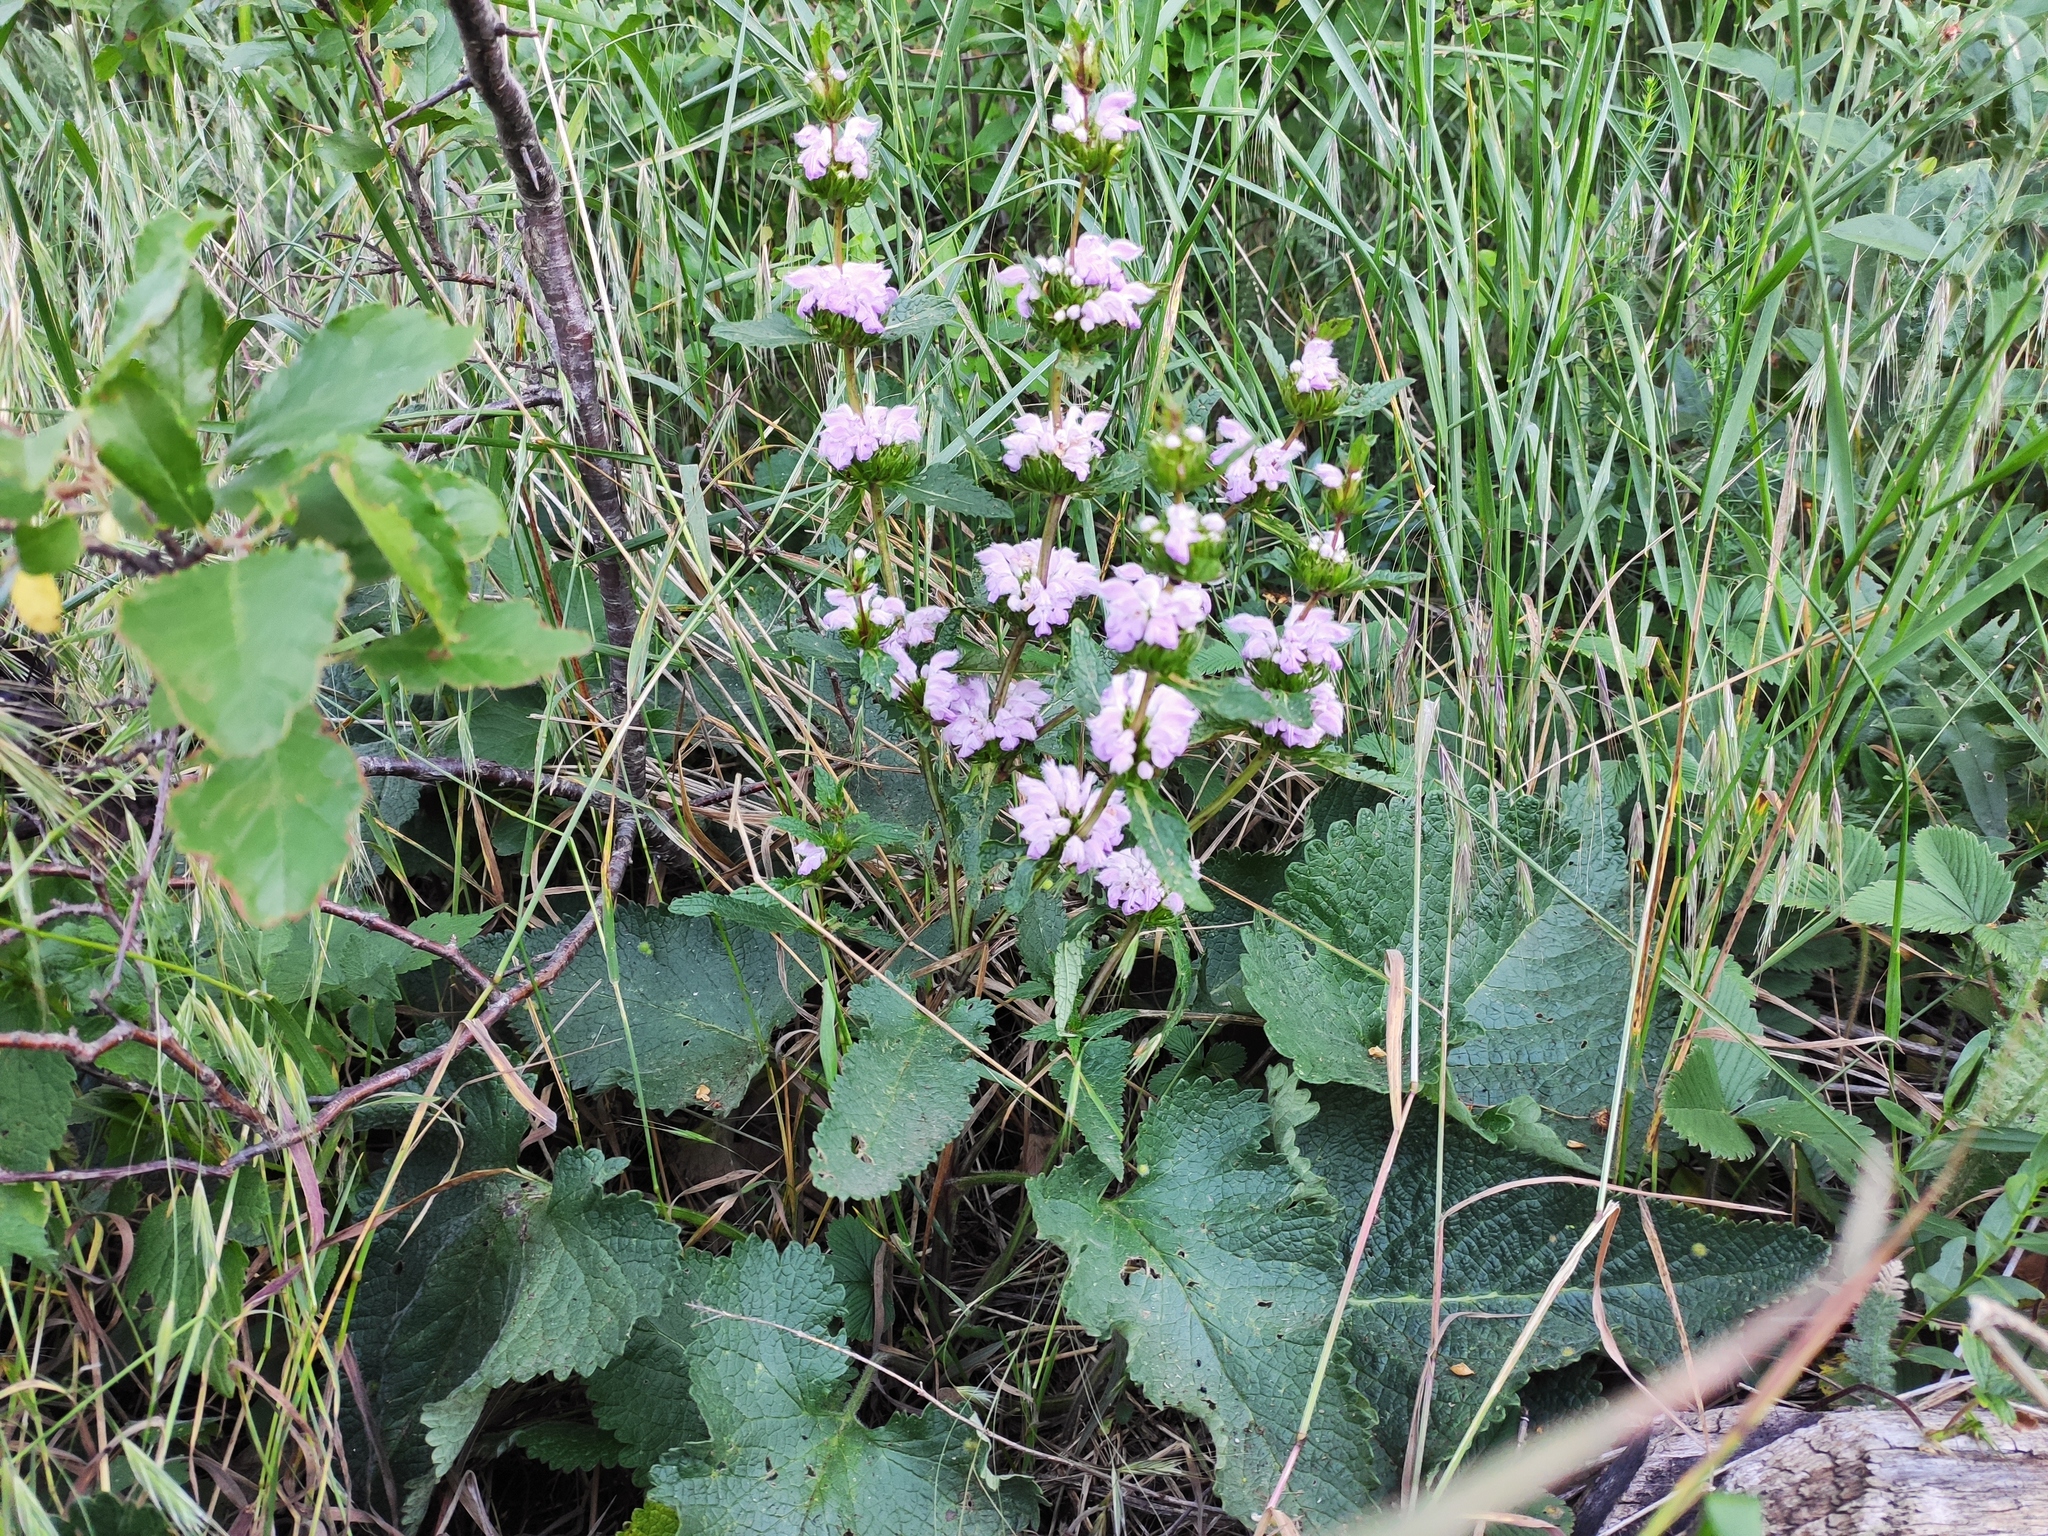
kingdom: Plantae
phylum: Tracheophyta
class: Magnoliopsida
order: Lamiales
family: Lamiaceae
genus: Phlomoides
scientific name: Phlomoides tuberosa
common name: Tuberous jerusalem sage
